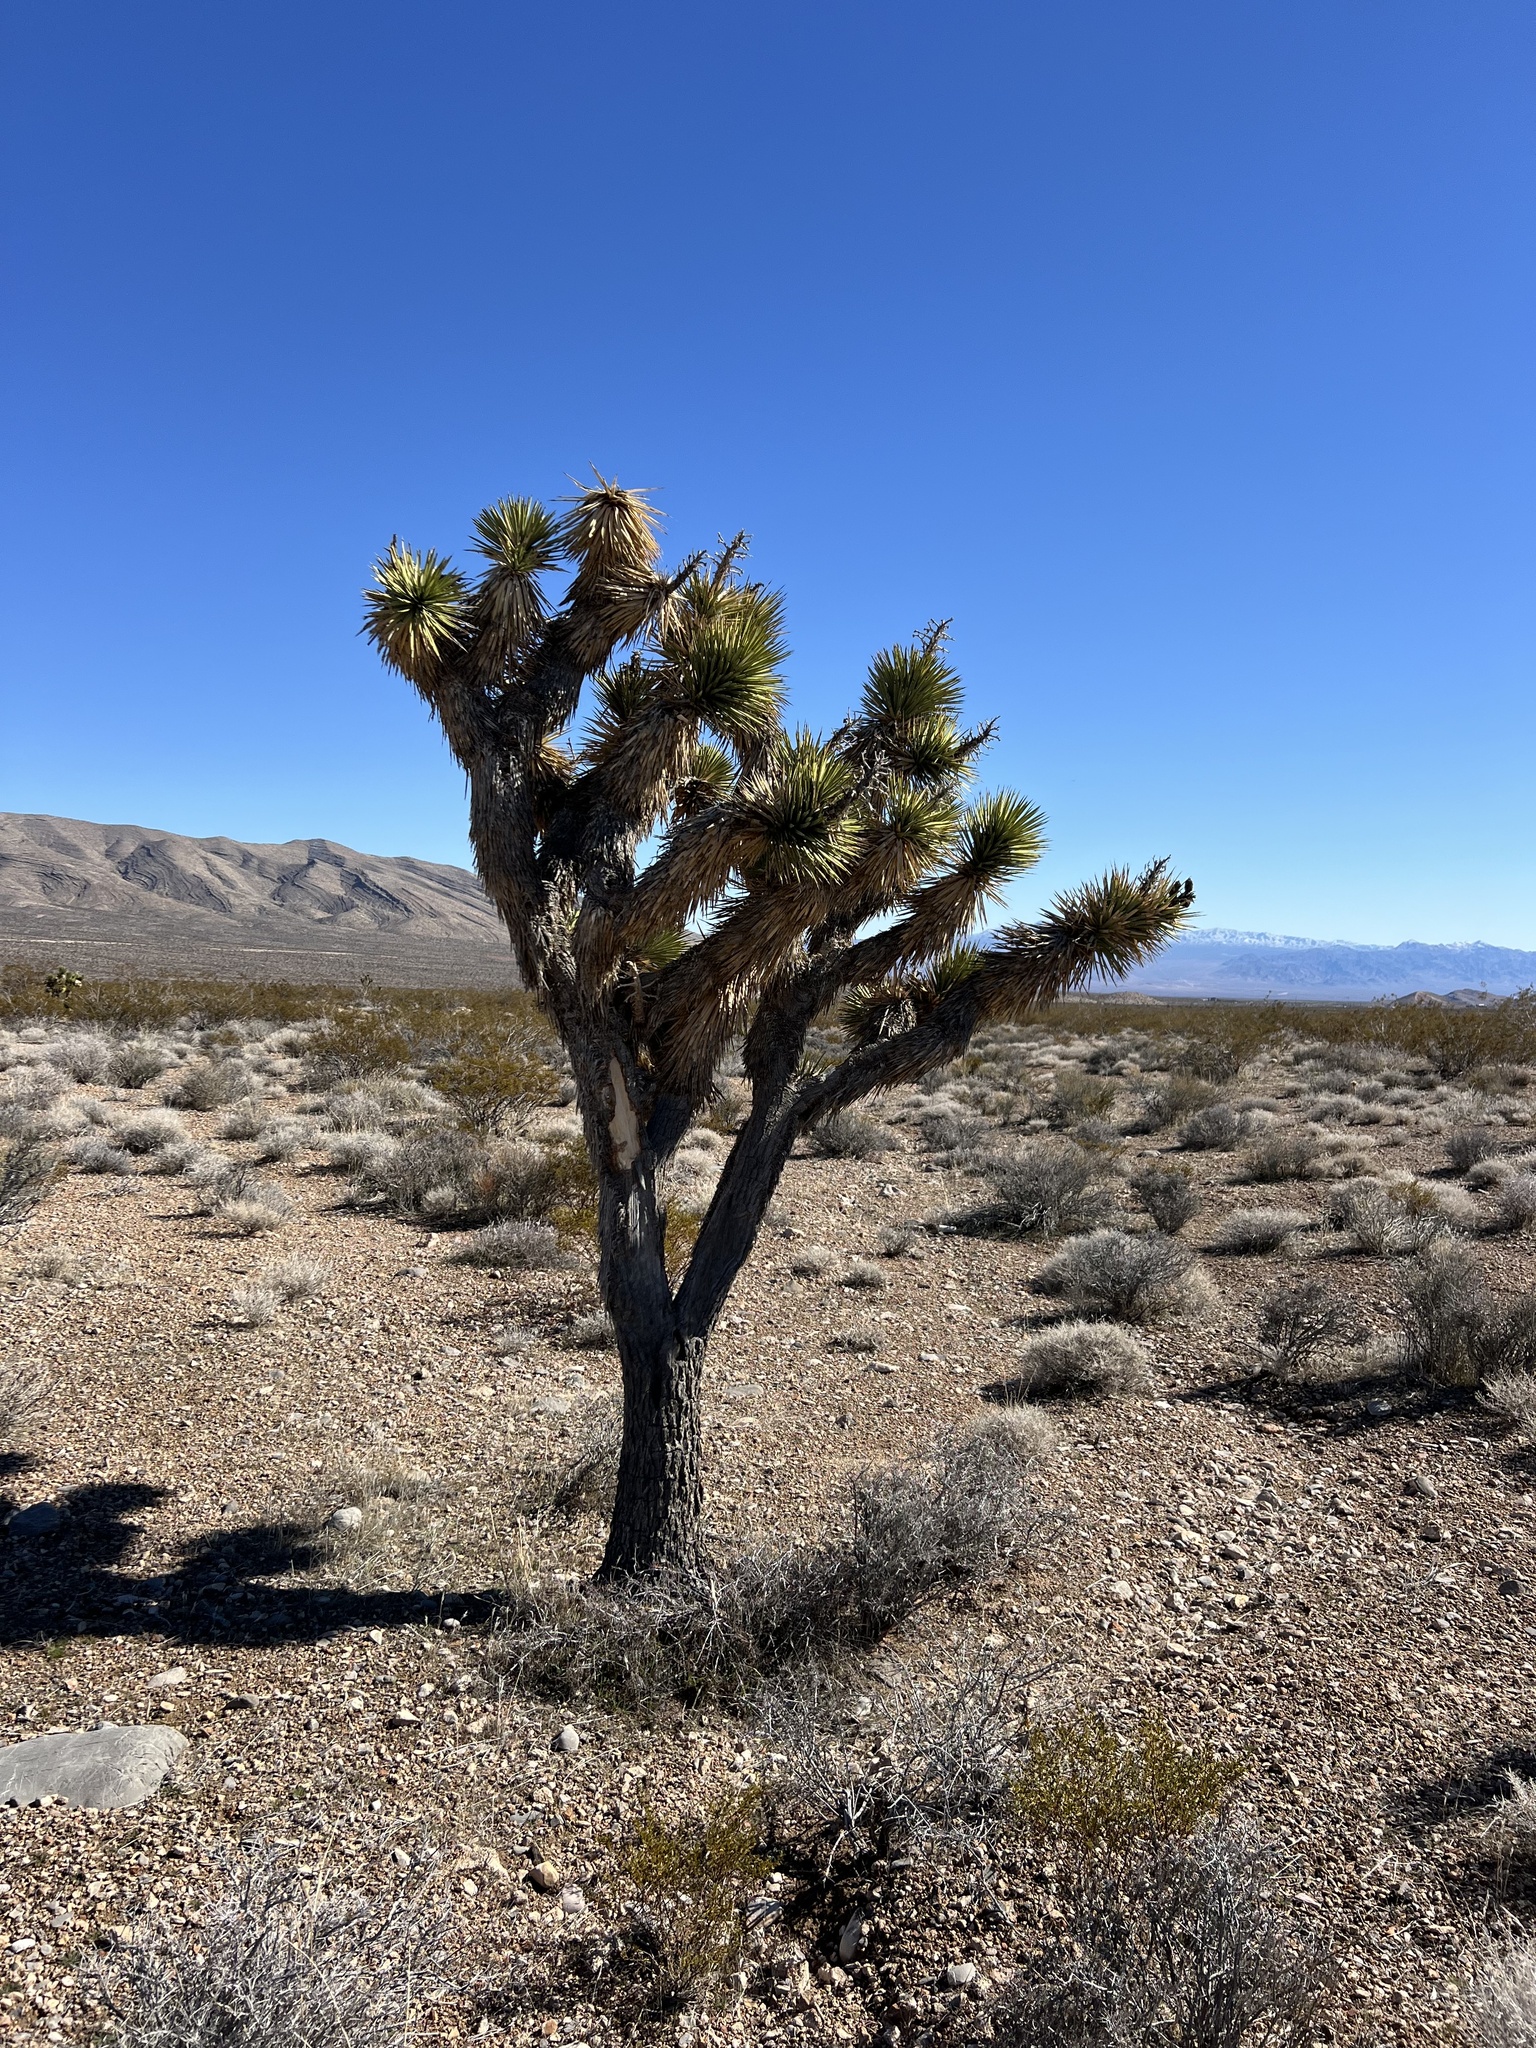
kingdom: Plantae
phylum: Tracheophyta
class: Liliopsida
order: Asparagales
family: Asparagaceae
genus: Yucca
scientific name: Yucca brevifolia
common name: Joshua tree
